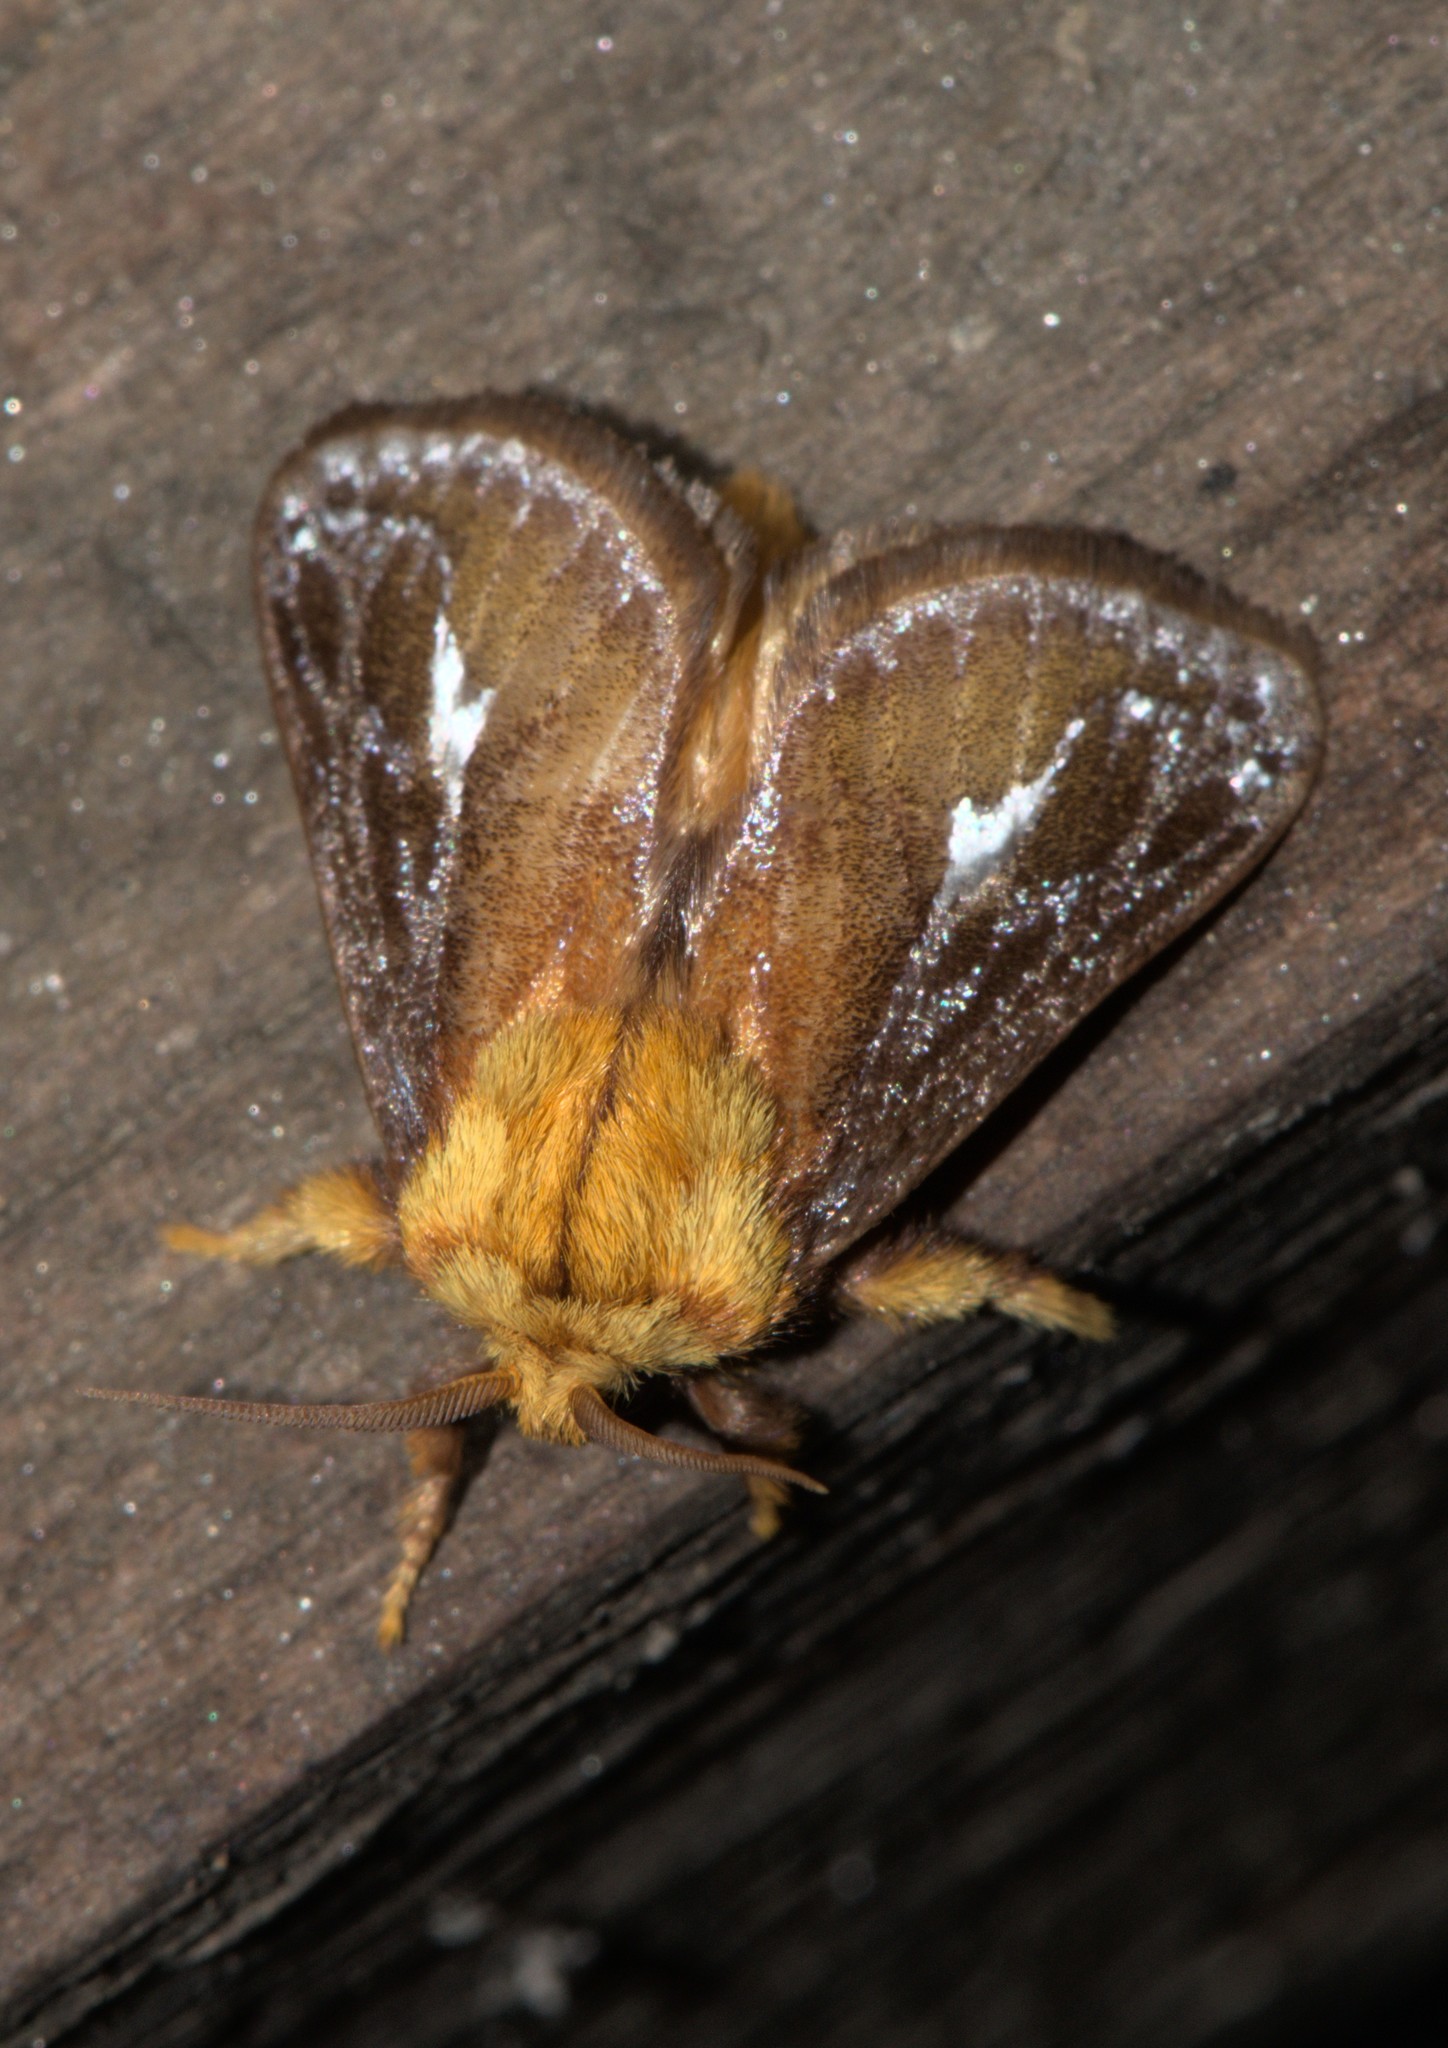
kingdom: Animalia
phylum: Arthropoda
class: Insecta
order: Lepidoptera
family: Limacodidae
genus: Miresa
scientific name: Miresa bracteata
